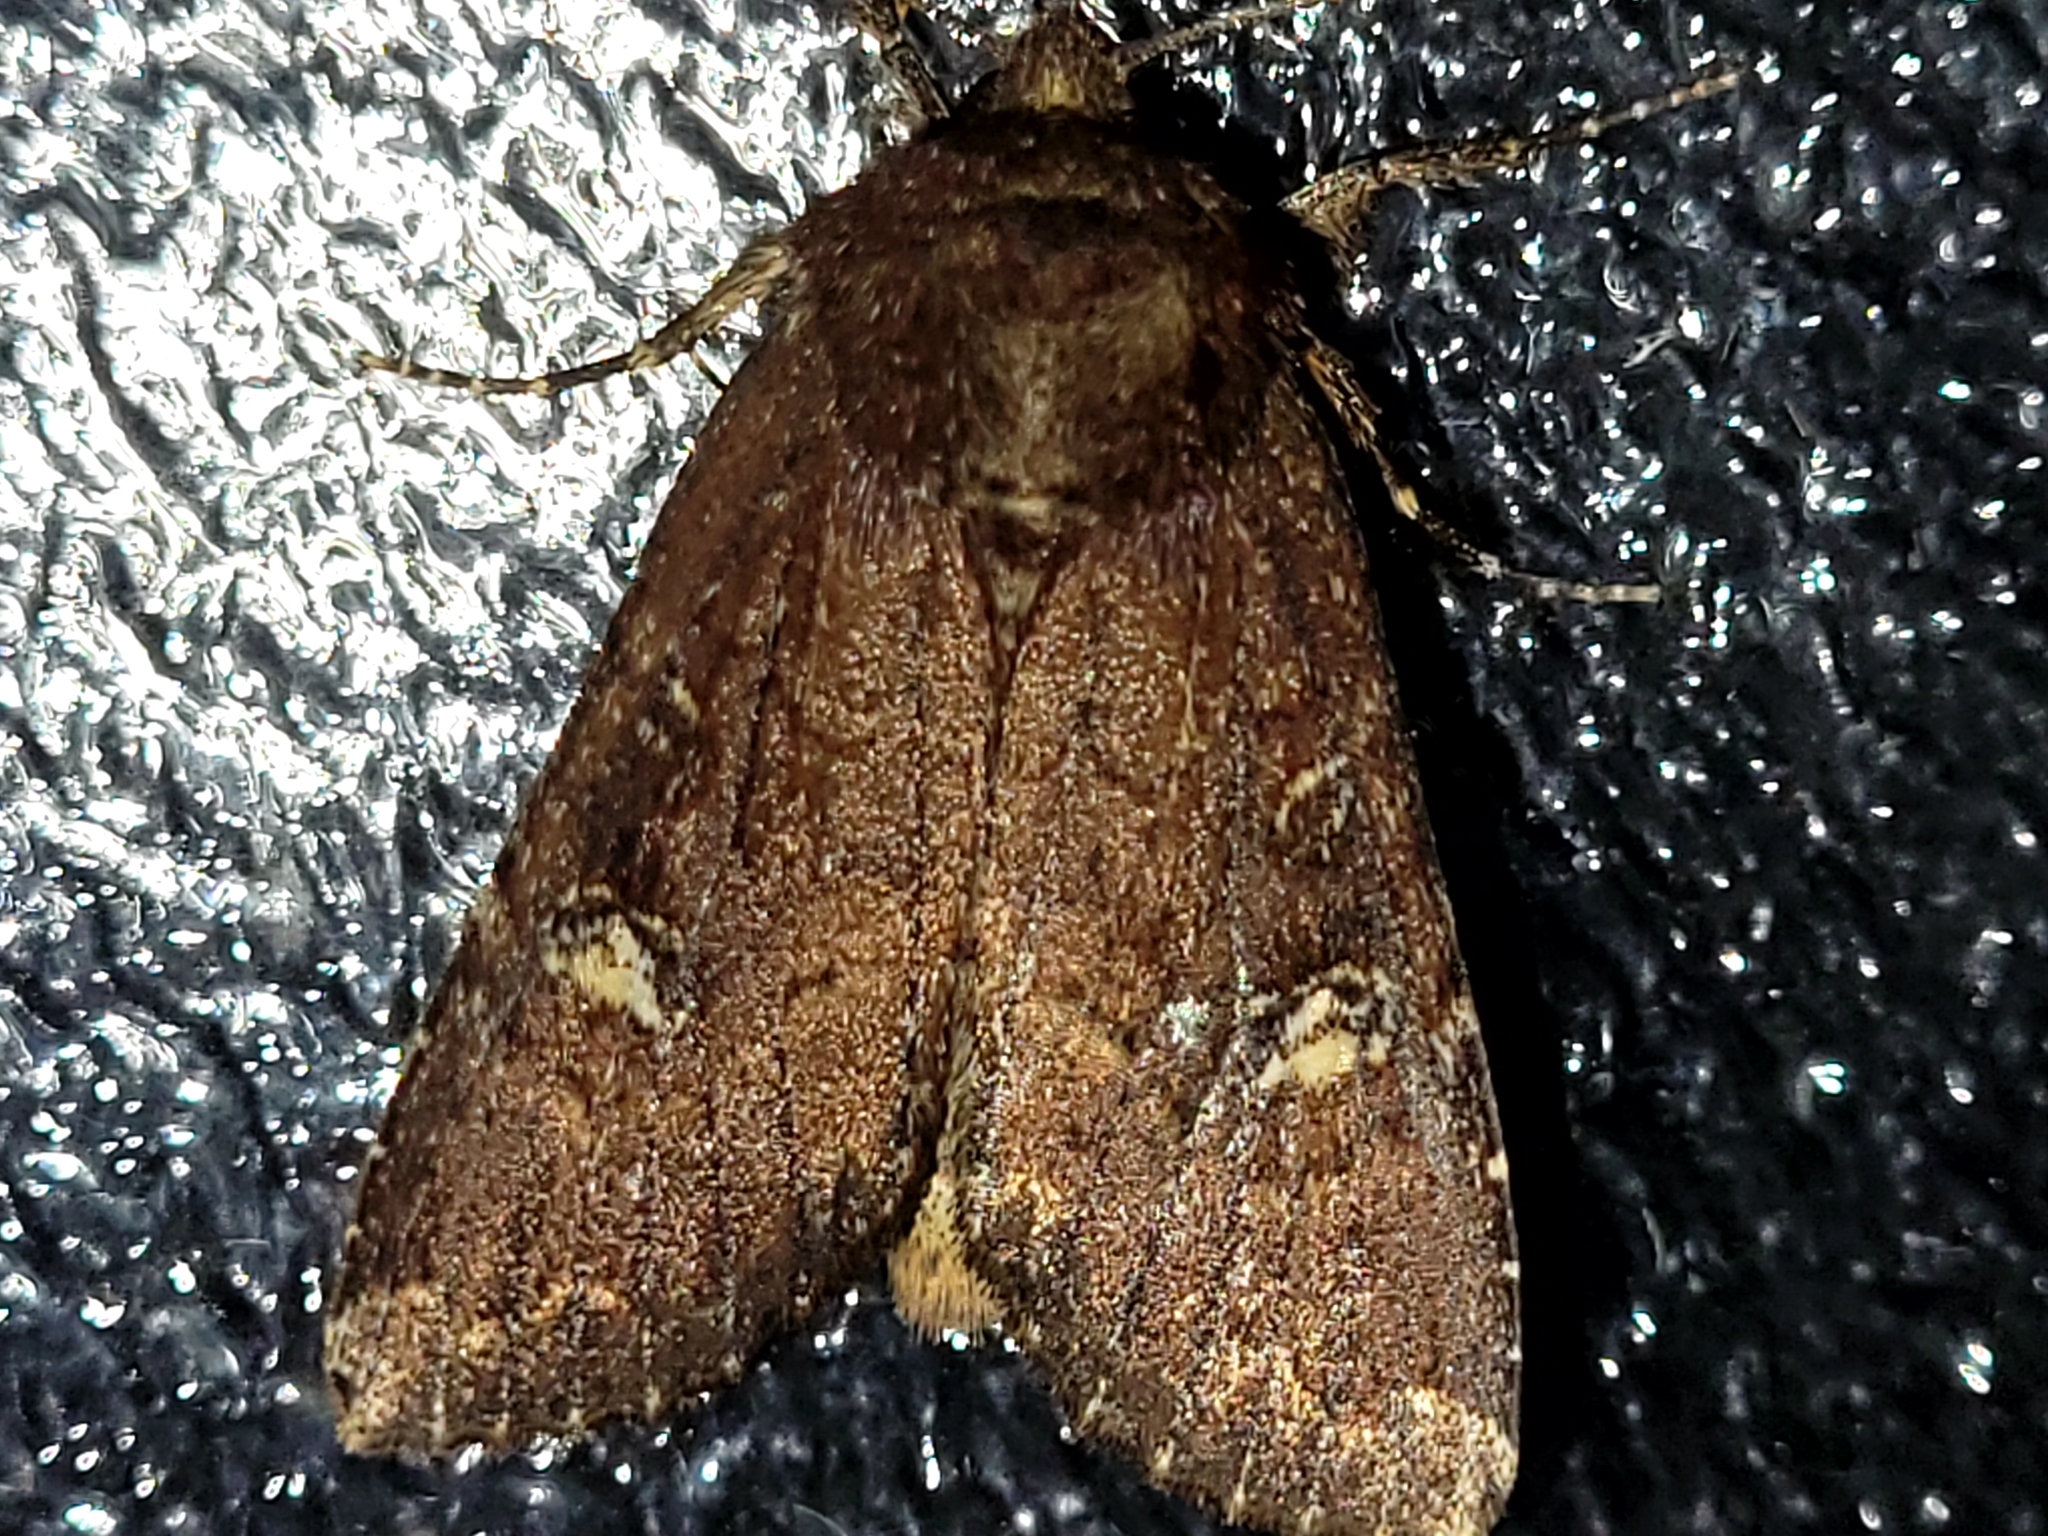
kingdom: Animalia
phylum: Arthropoda
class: Insecta
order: Lepidoptera
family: Noctuidae
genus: Apamea
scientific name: Apamea dubitans
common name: Doubtful apamea moth
